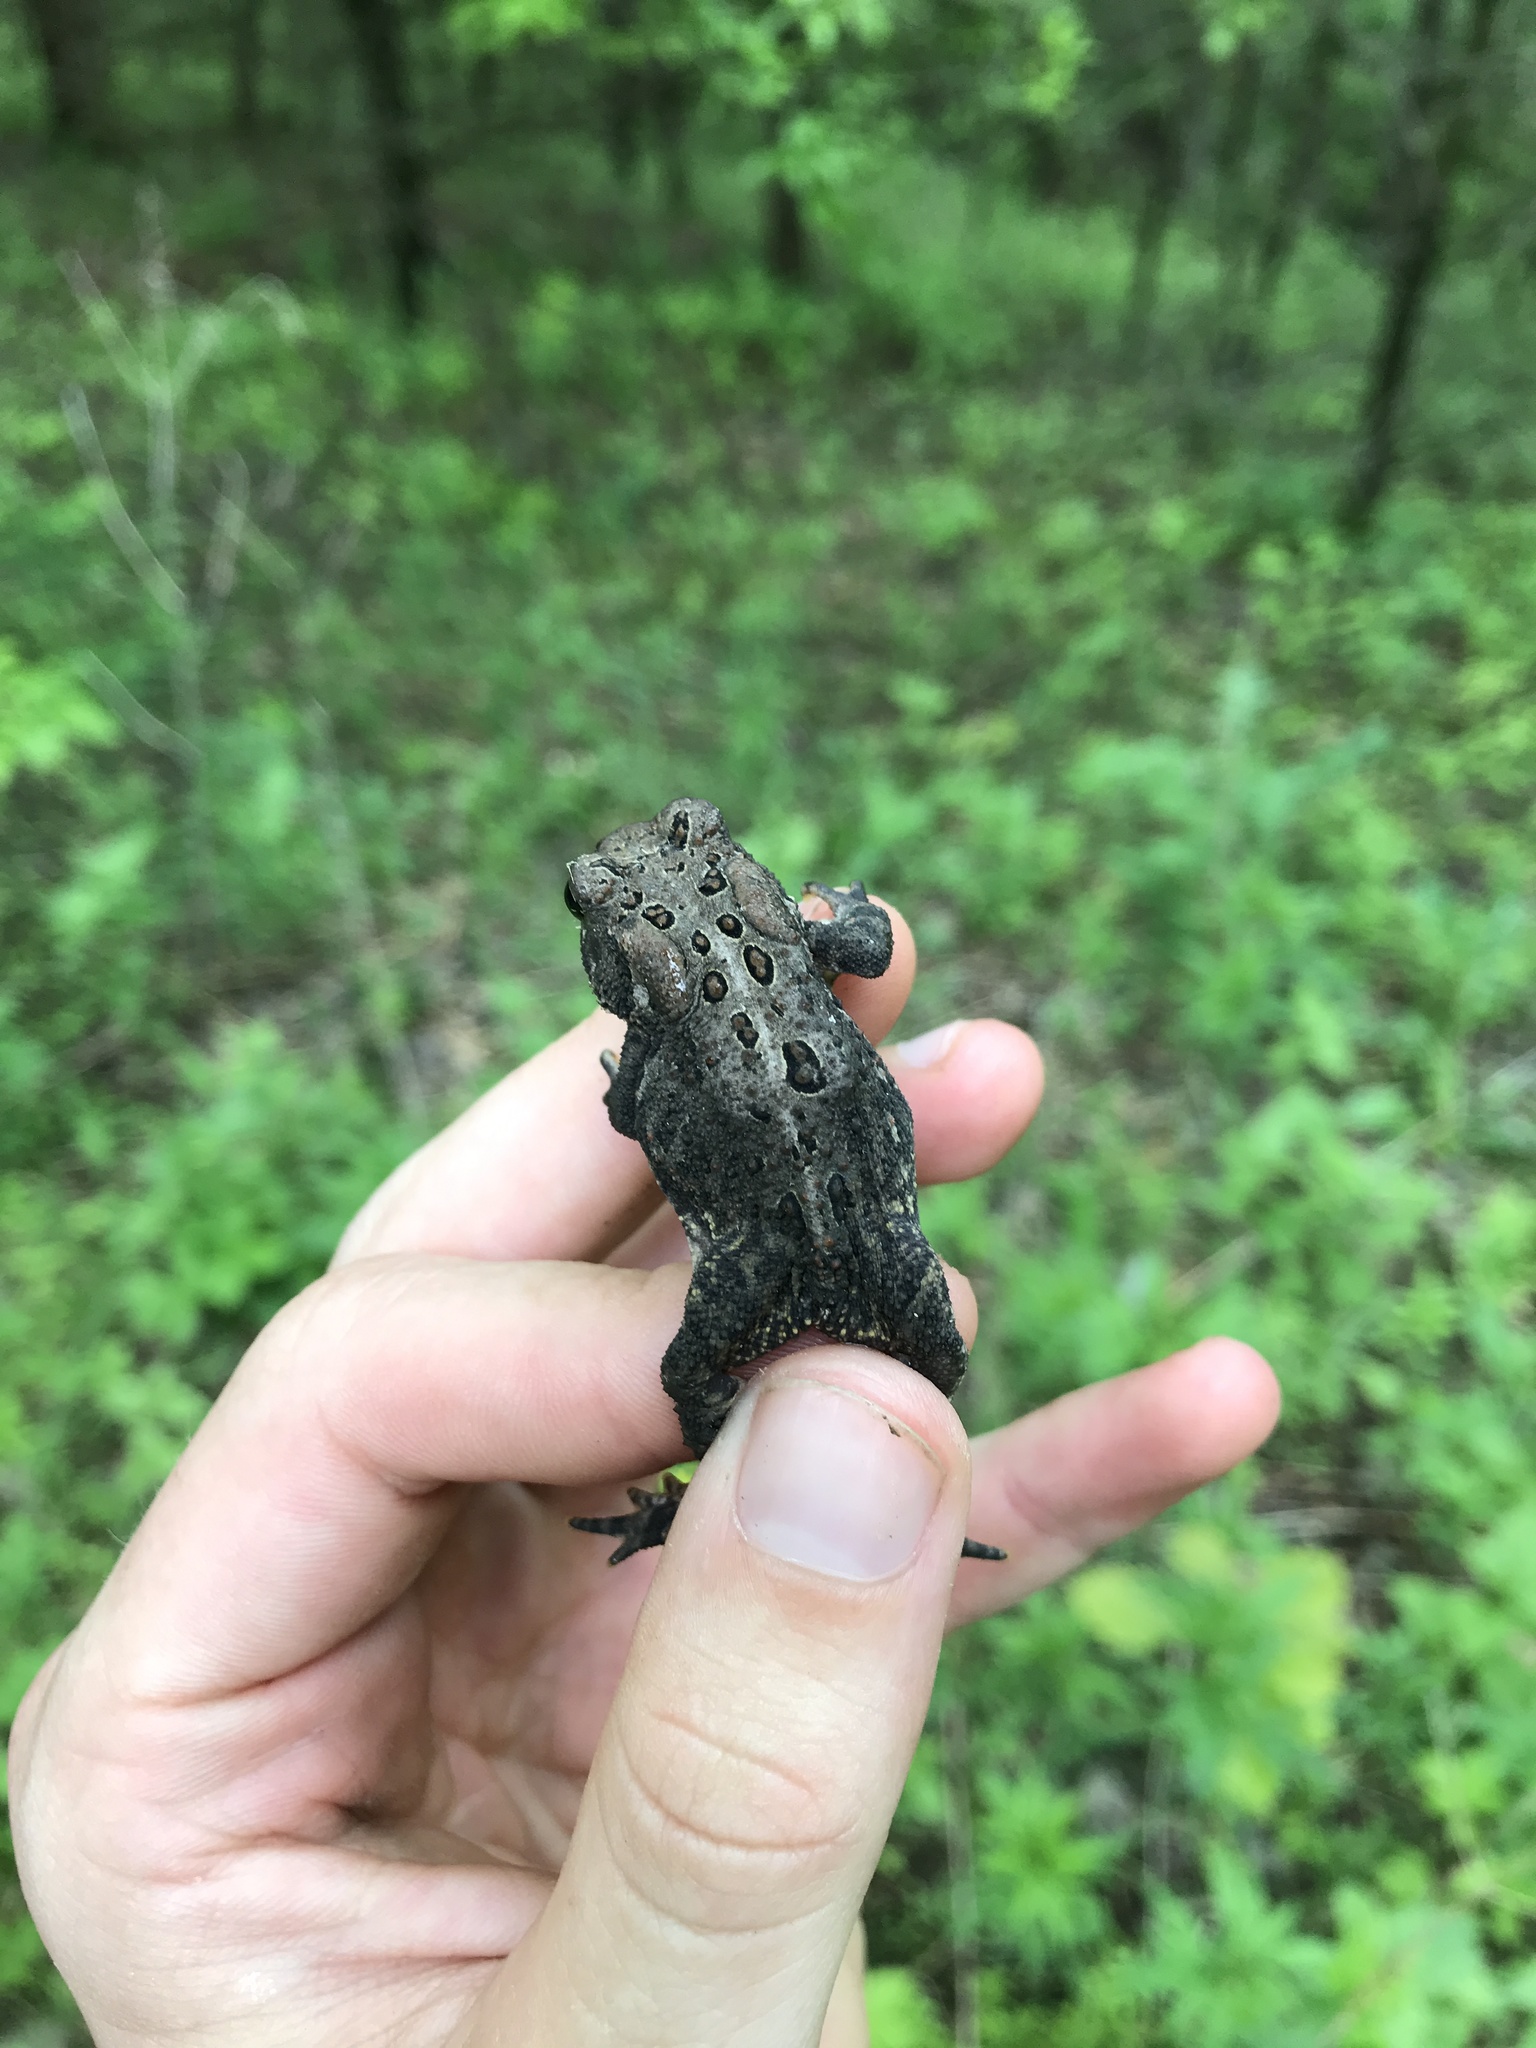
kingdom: Animalia
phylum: Chordata
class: Amphibia
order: Anura
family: Bufonidae
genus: Anaxyrus
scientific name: Anaxyrus americanus
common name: American toad
